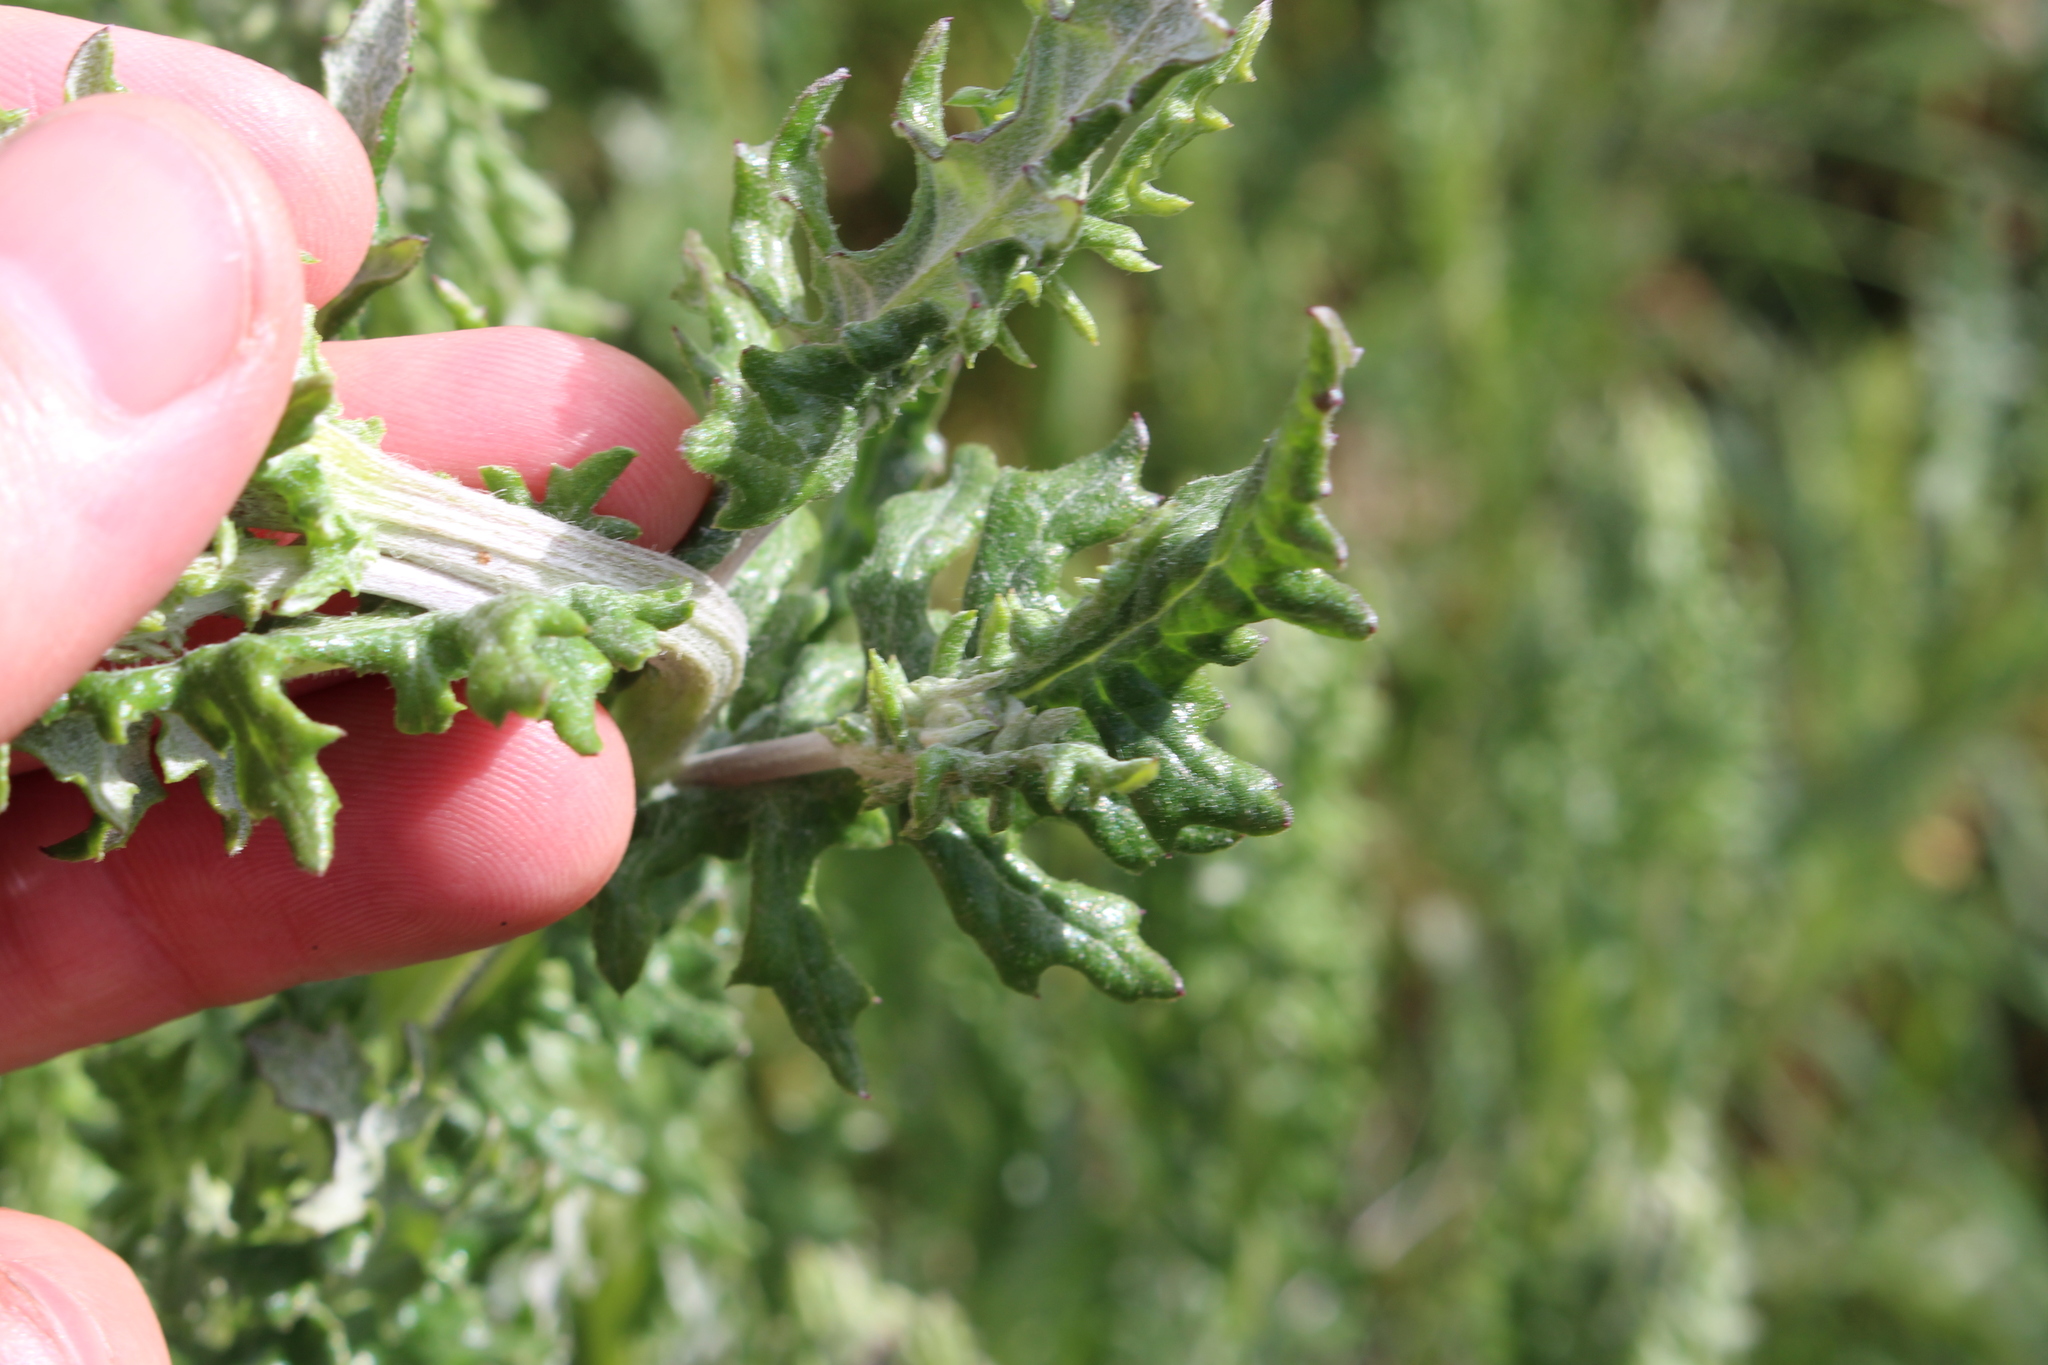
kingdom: Plantae
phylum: Tracheophyta
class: Magnoliopsida
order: Asterales
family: Asteraceae
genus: Senecio
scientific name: Senecio glomeratus
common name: Cutleaf burnweed
